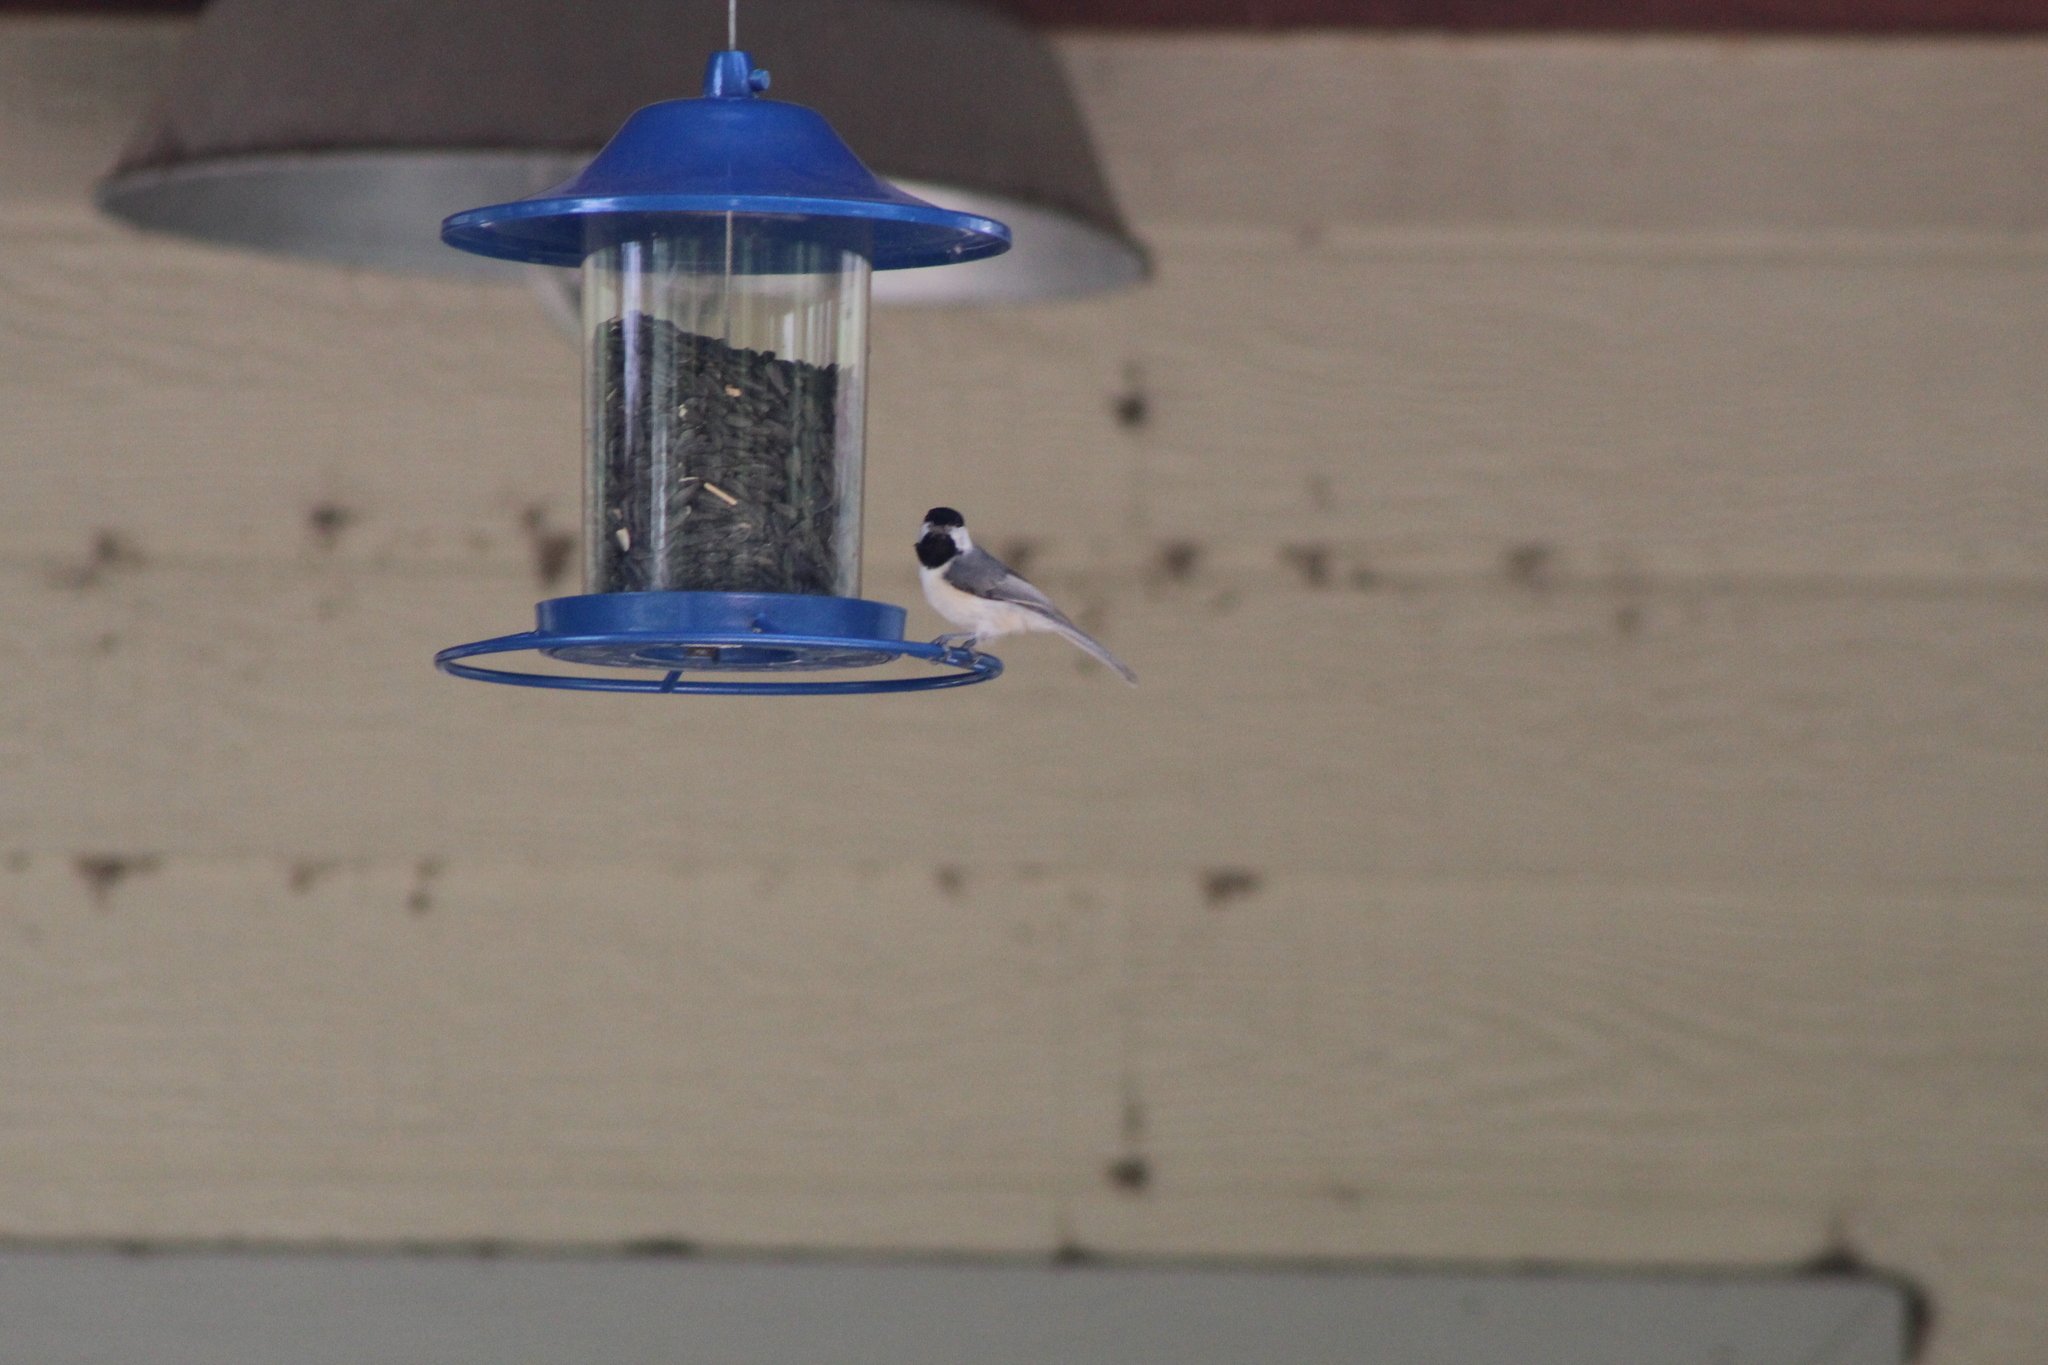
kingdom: Animalia
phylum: Chordata
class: Aves
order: Passeriformes
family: Paridae
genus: Poecile
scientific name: Poecile carolinensis
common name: Carolina chickadee
